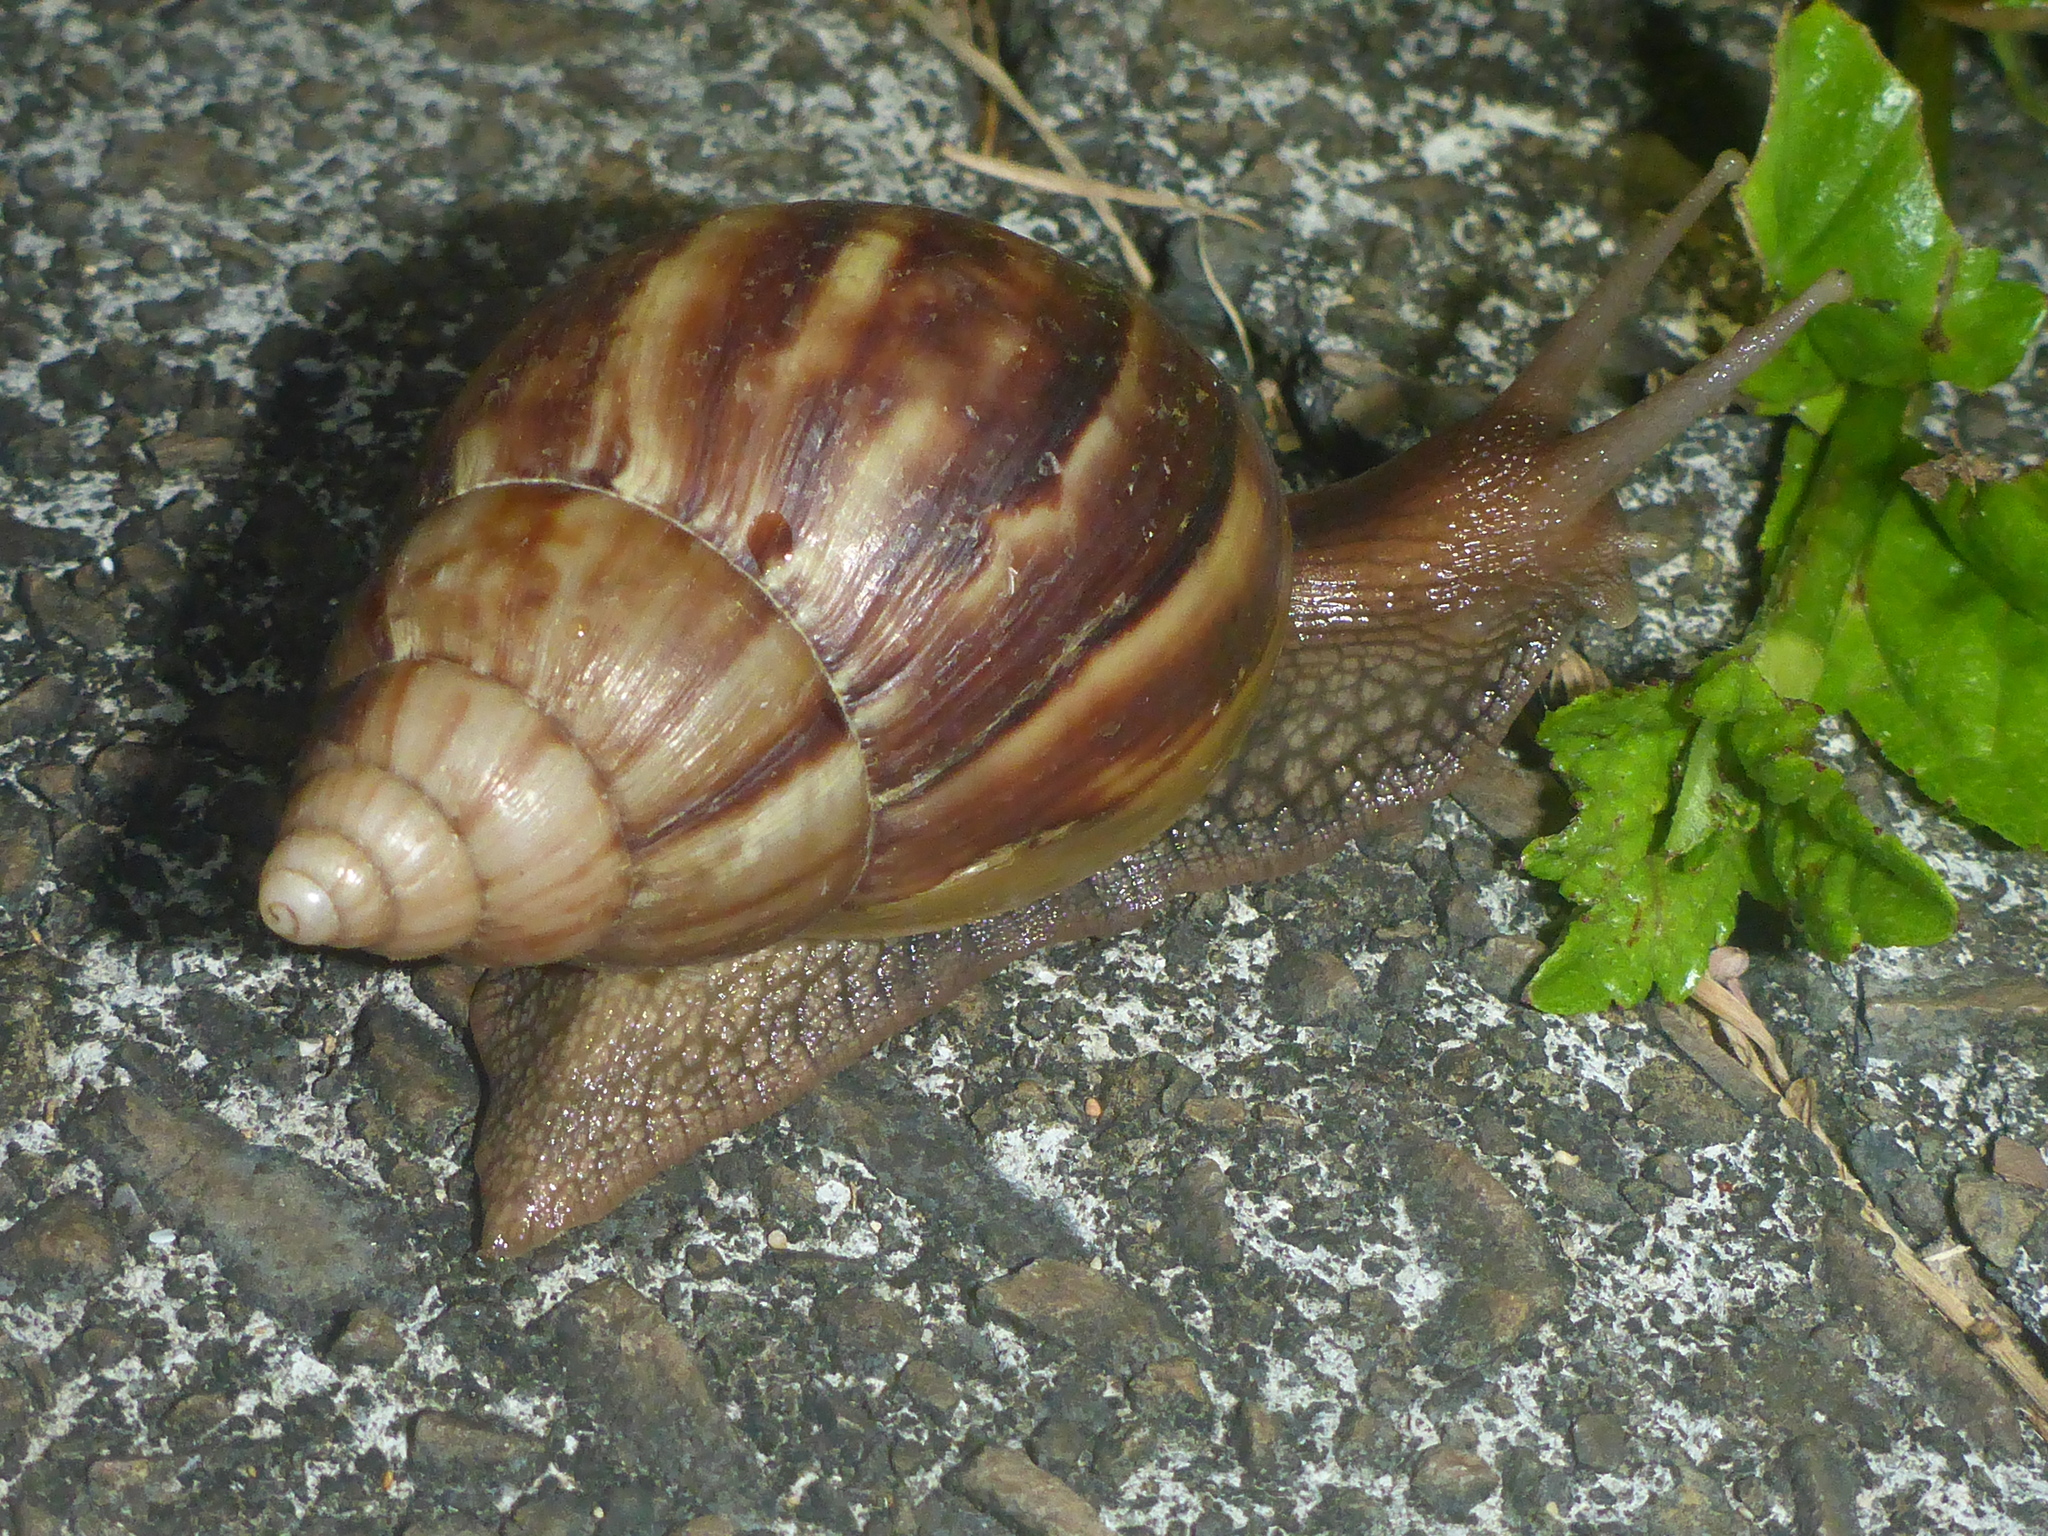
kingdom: Animalia
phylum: Mollusca
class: Gastropoda
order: Stylommatophora
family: Achatinidae
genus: Lissachatina
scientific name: Lissachatina fulica
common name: Giant african snail
